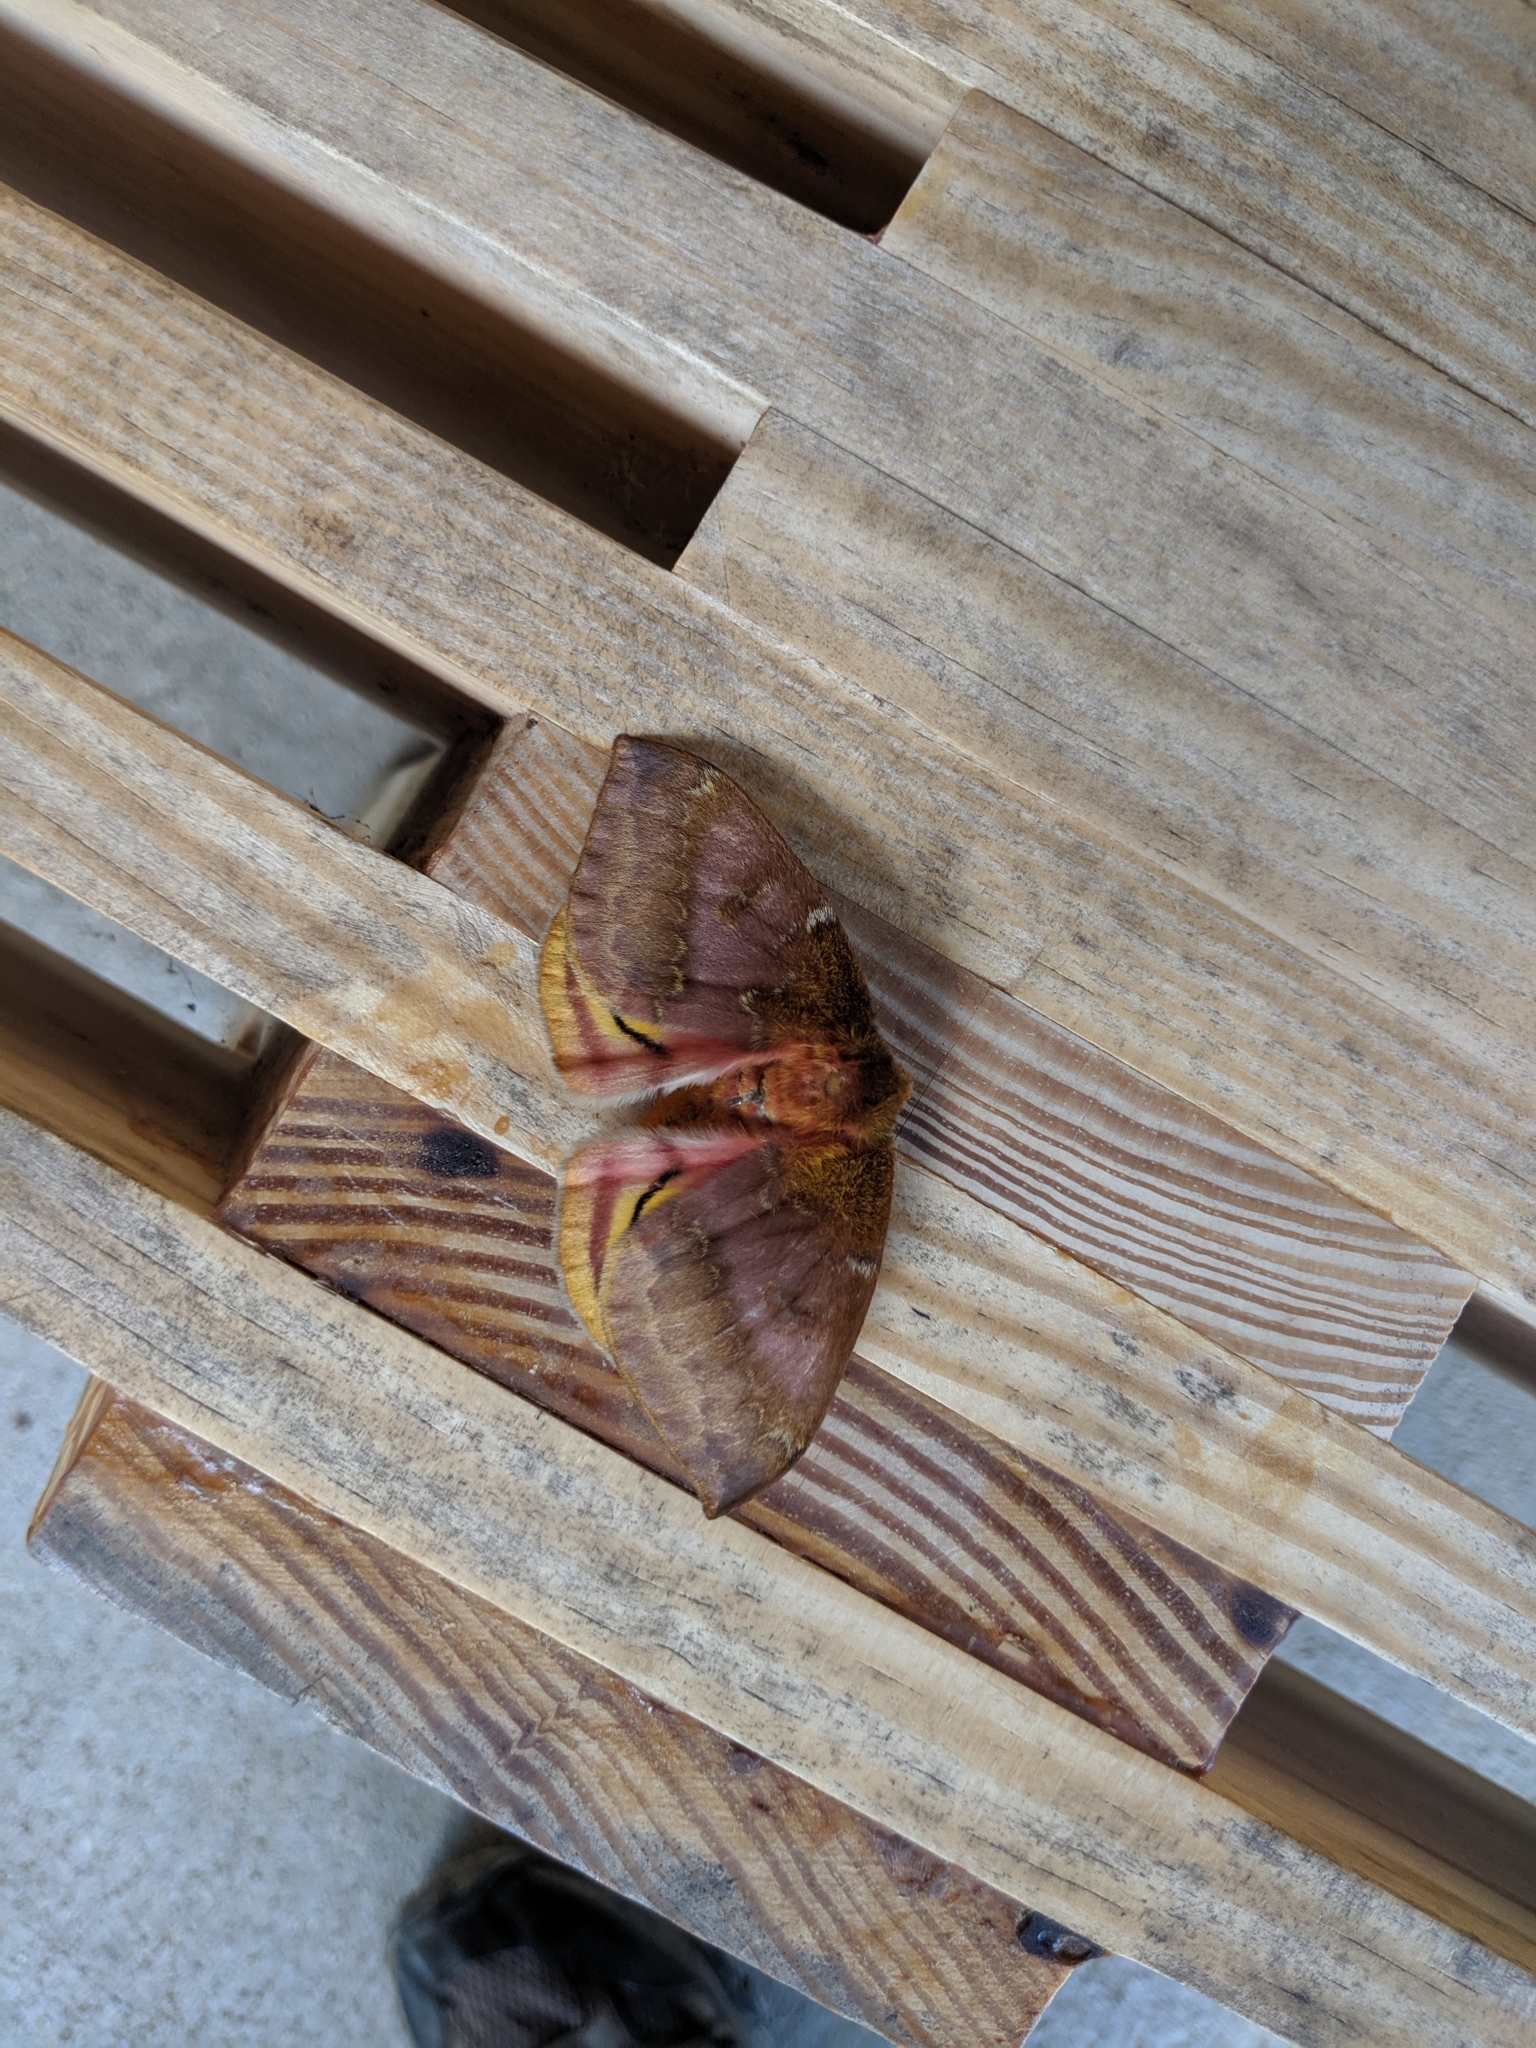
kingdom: Animalia
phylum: Arthropoda
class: Insecta
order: Lepidoptera
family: Saturniidae
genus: Automeris
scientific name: Automeris io
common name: Io moth
